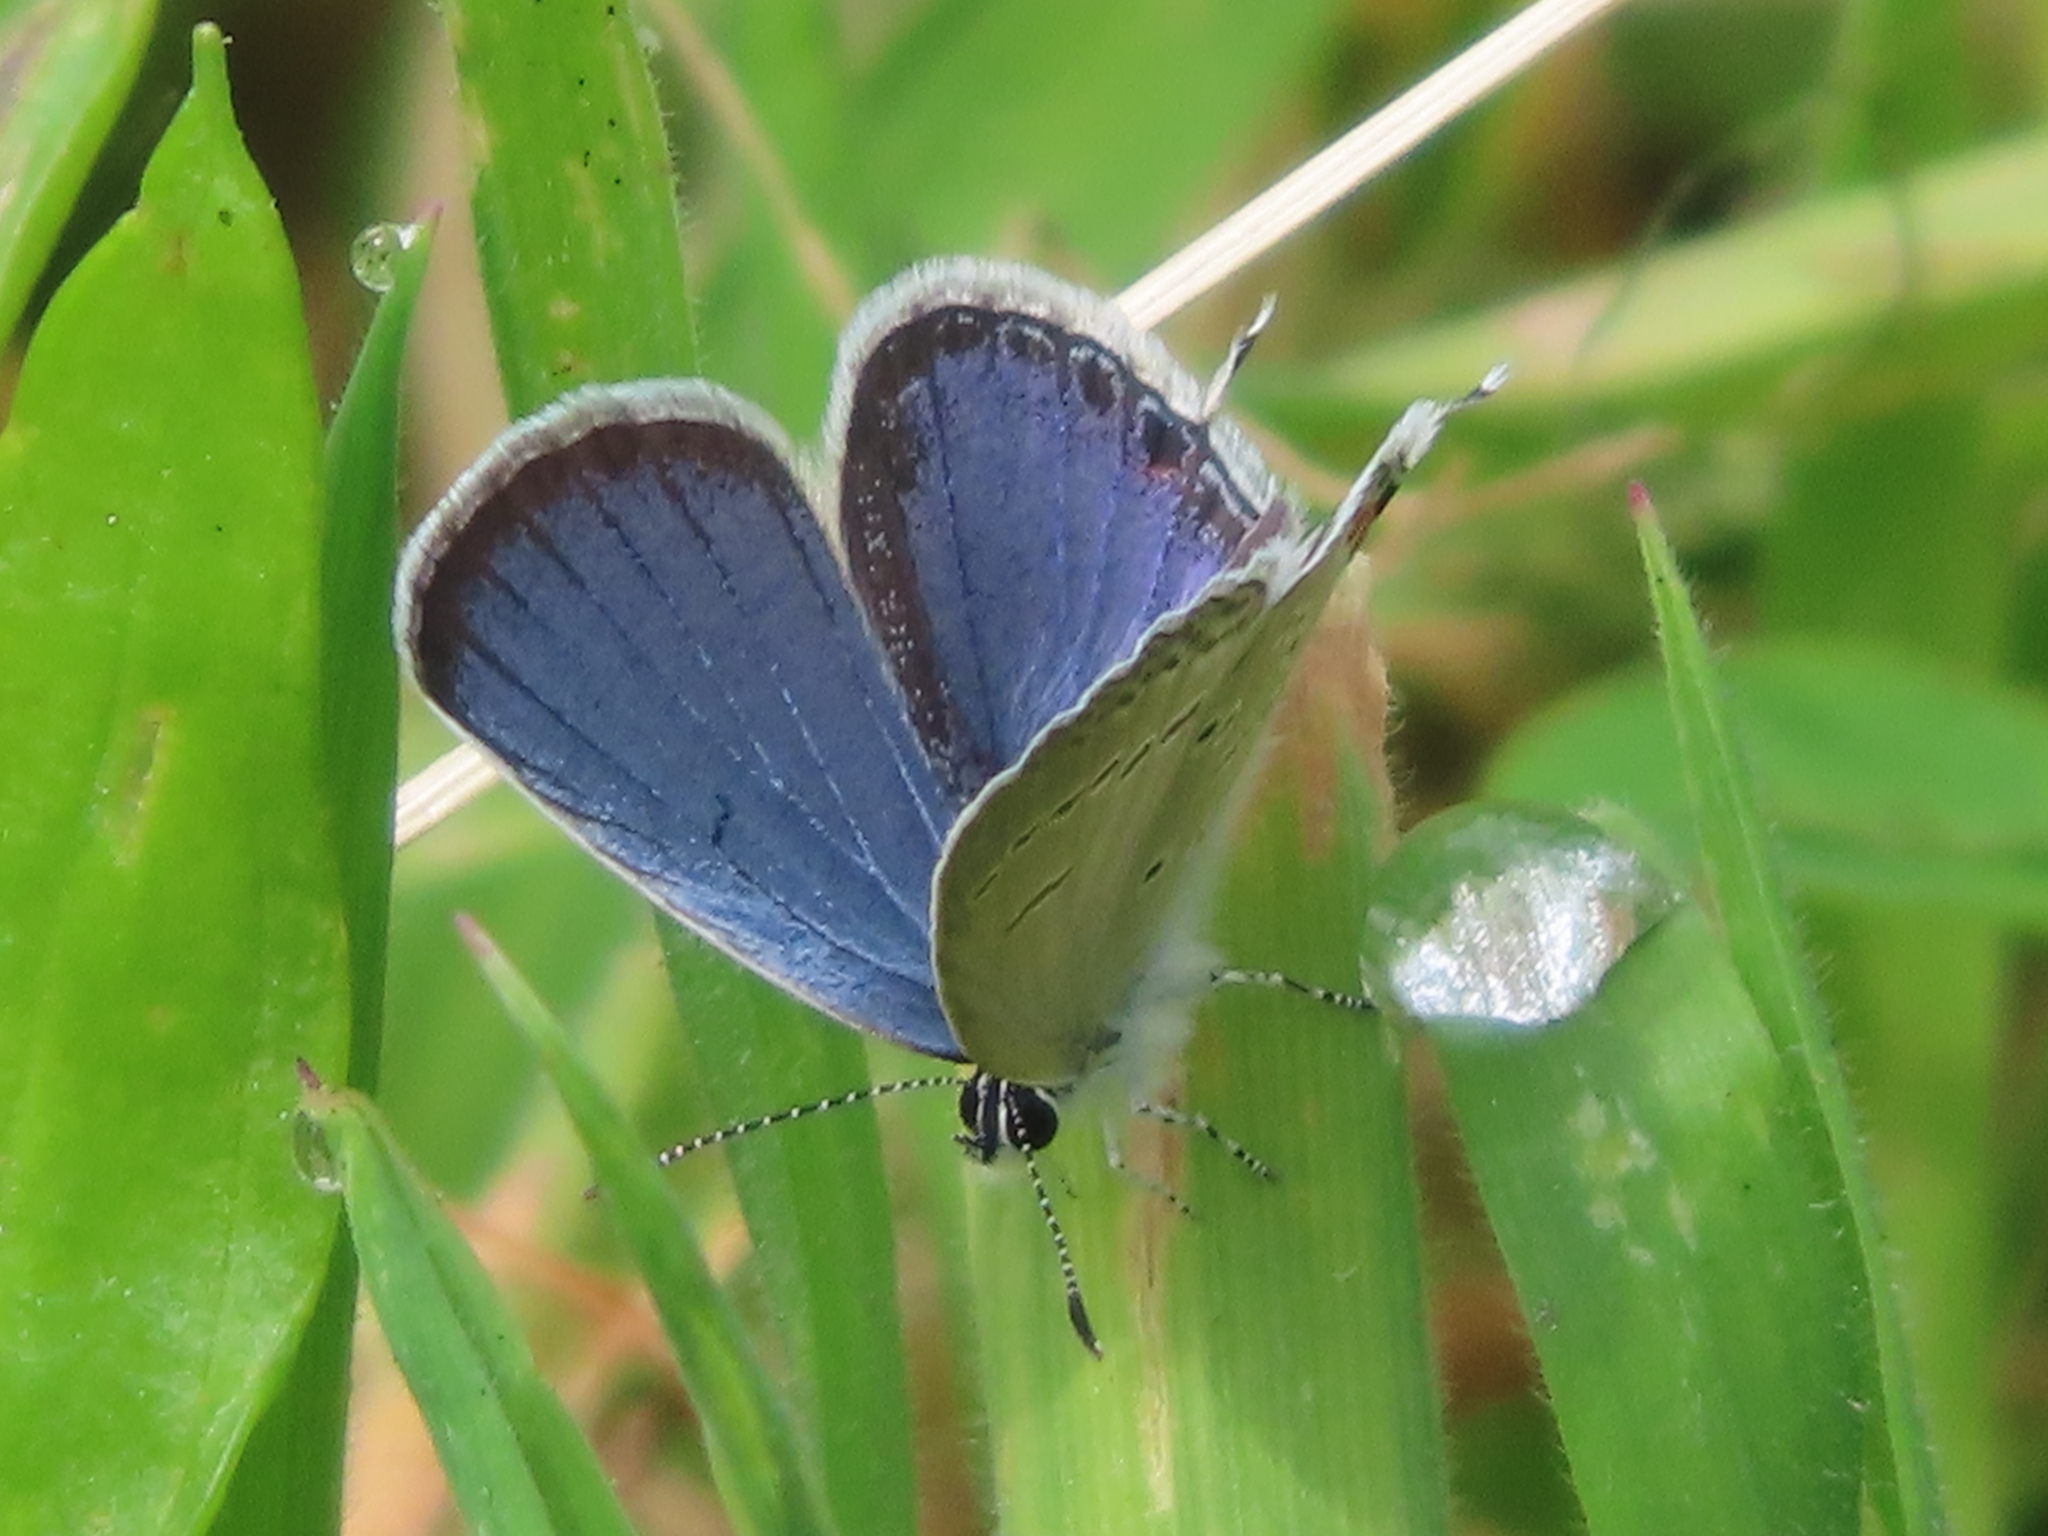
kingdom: Animalia
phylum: Arthropoda
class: Insecta
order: Lepidoptera
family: Lycaenidae
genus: Elkalyce
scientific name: Elkalyce comyntas
